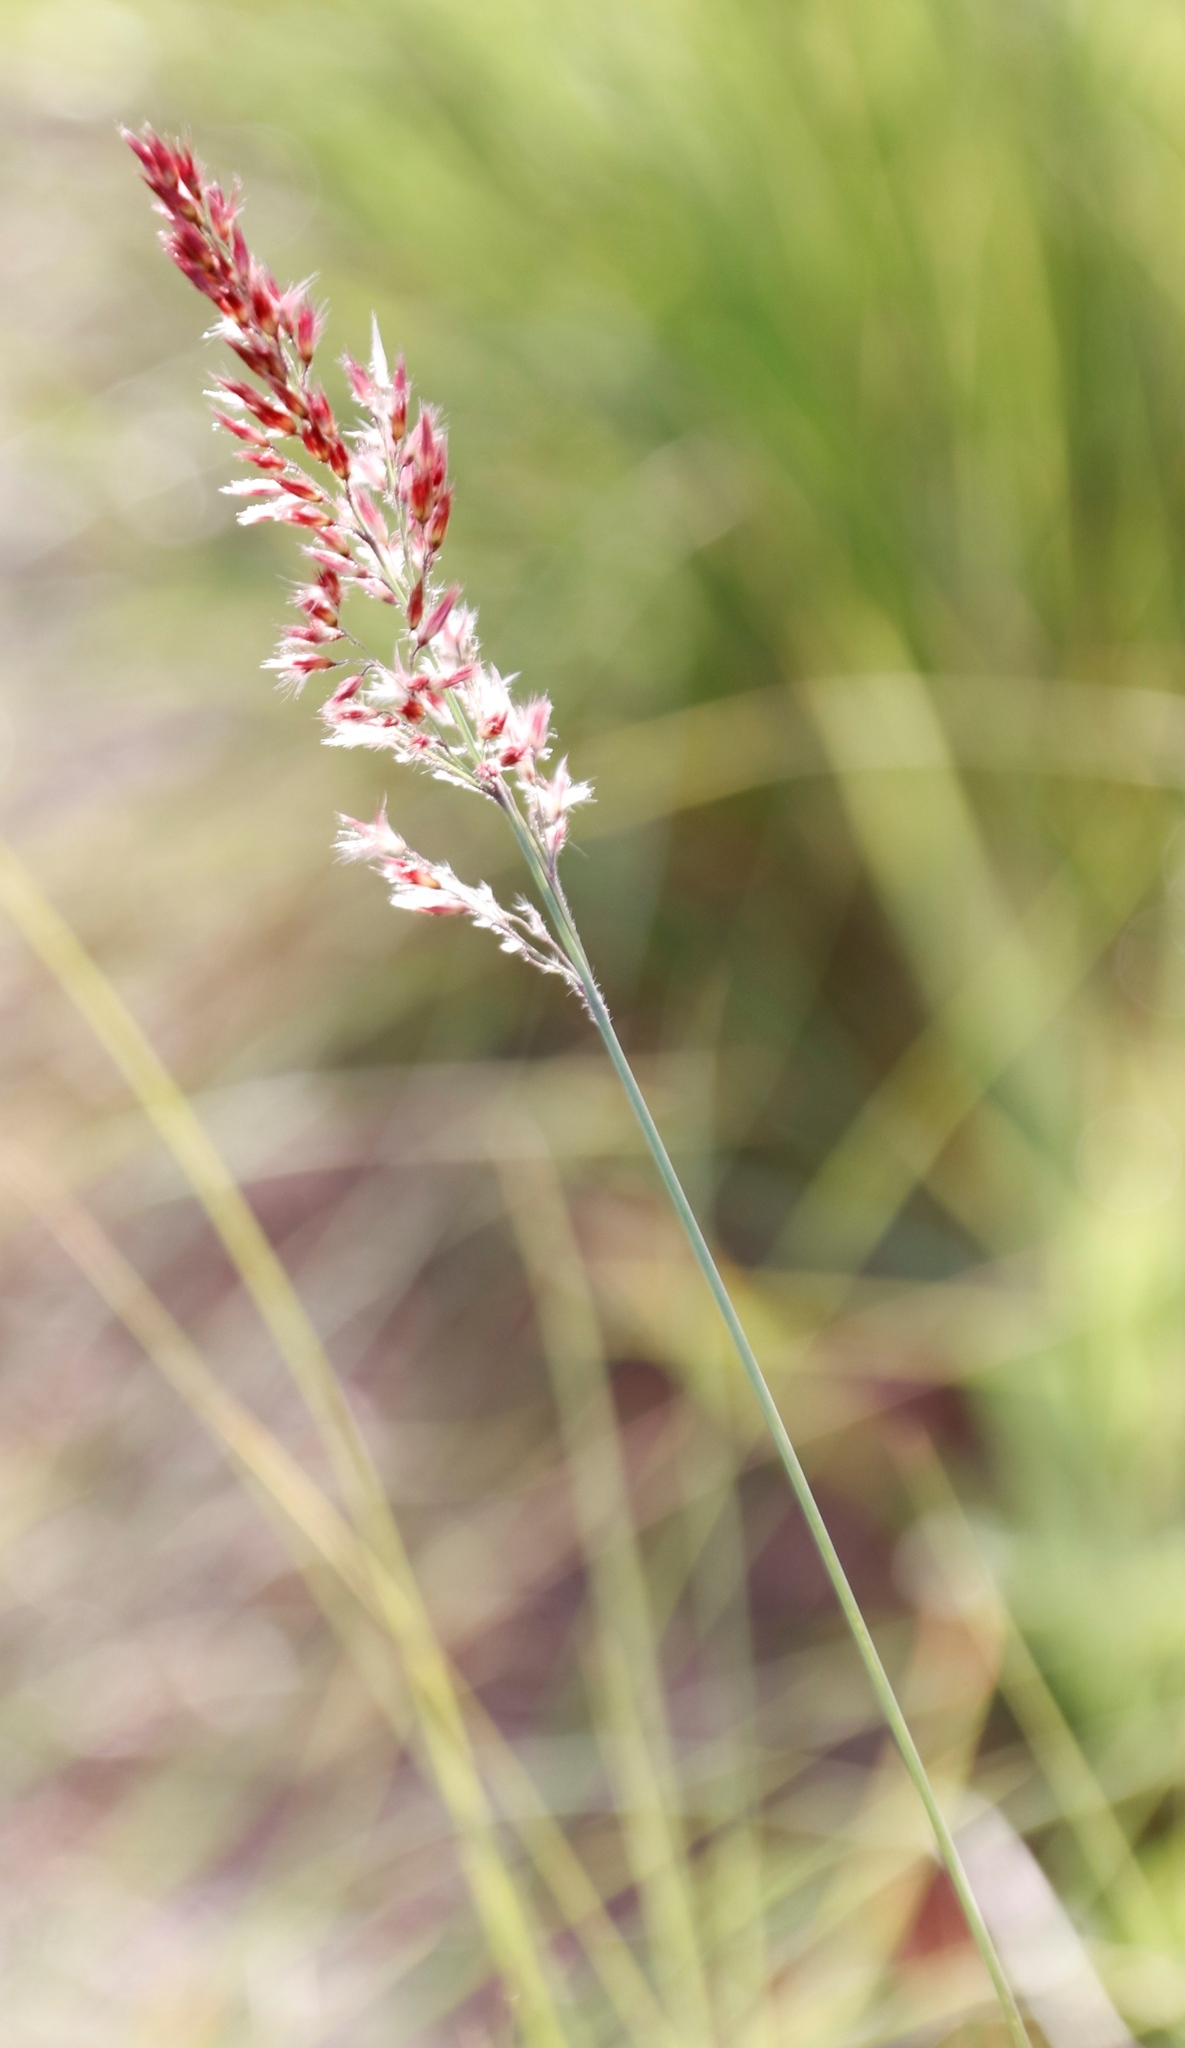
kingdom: Plantae
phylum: Tracheophyta
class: Liliopsida
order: Poales
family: Poaceae
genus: Melinis
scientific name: Melinis nerviglumis
